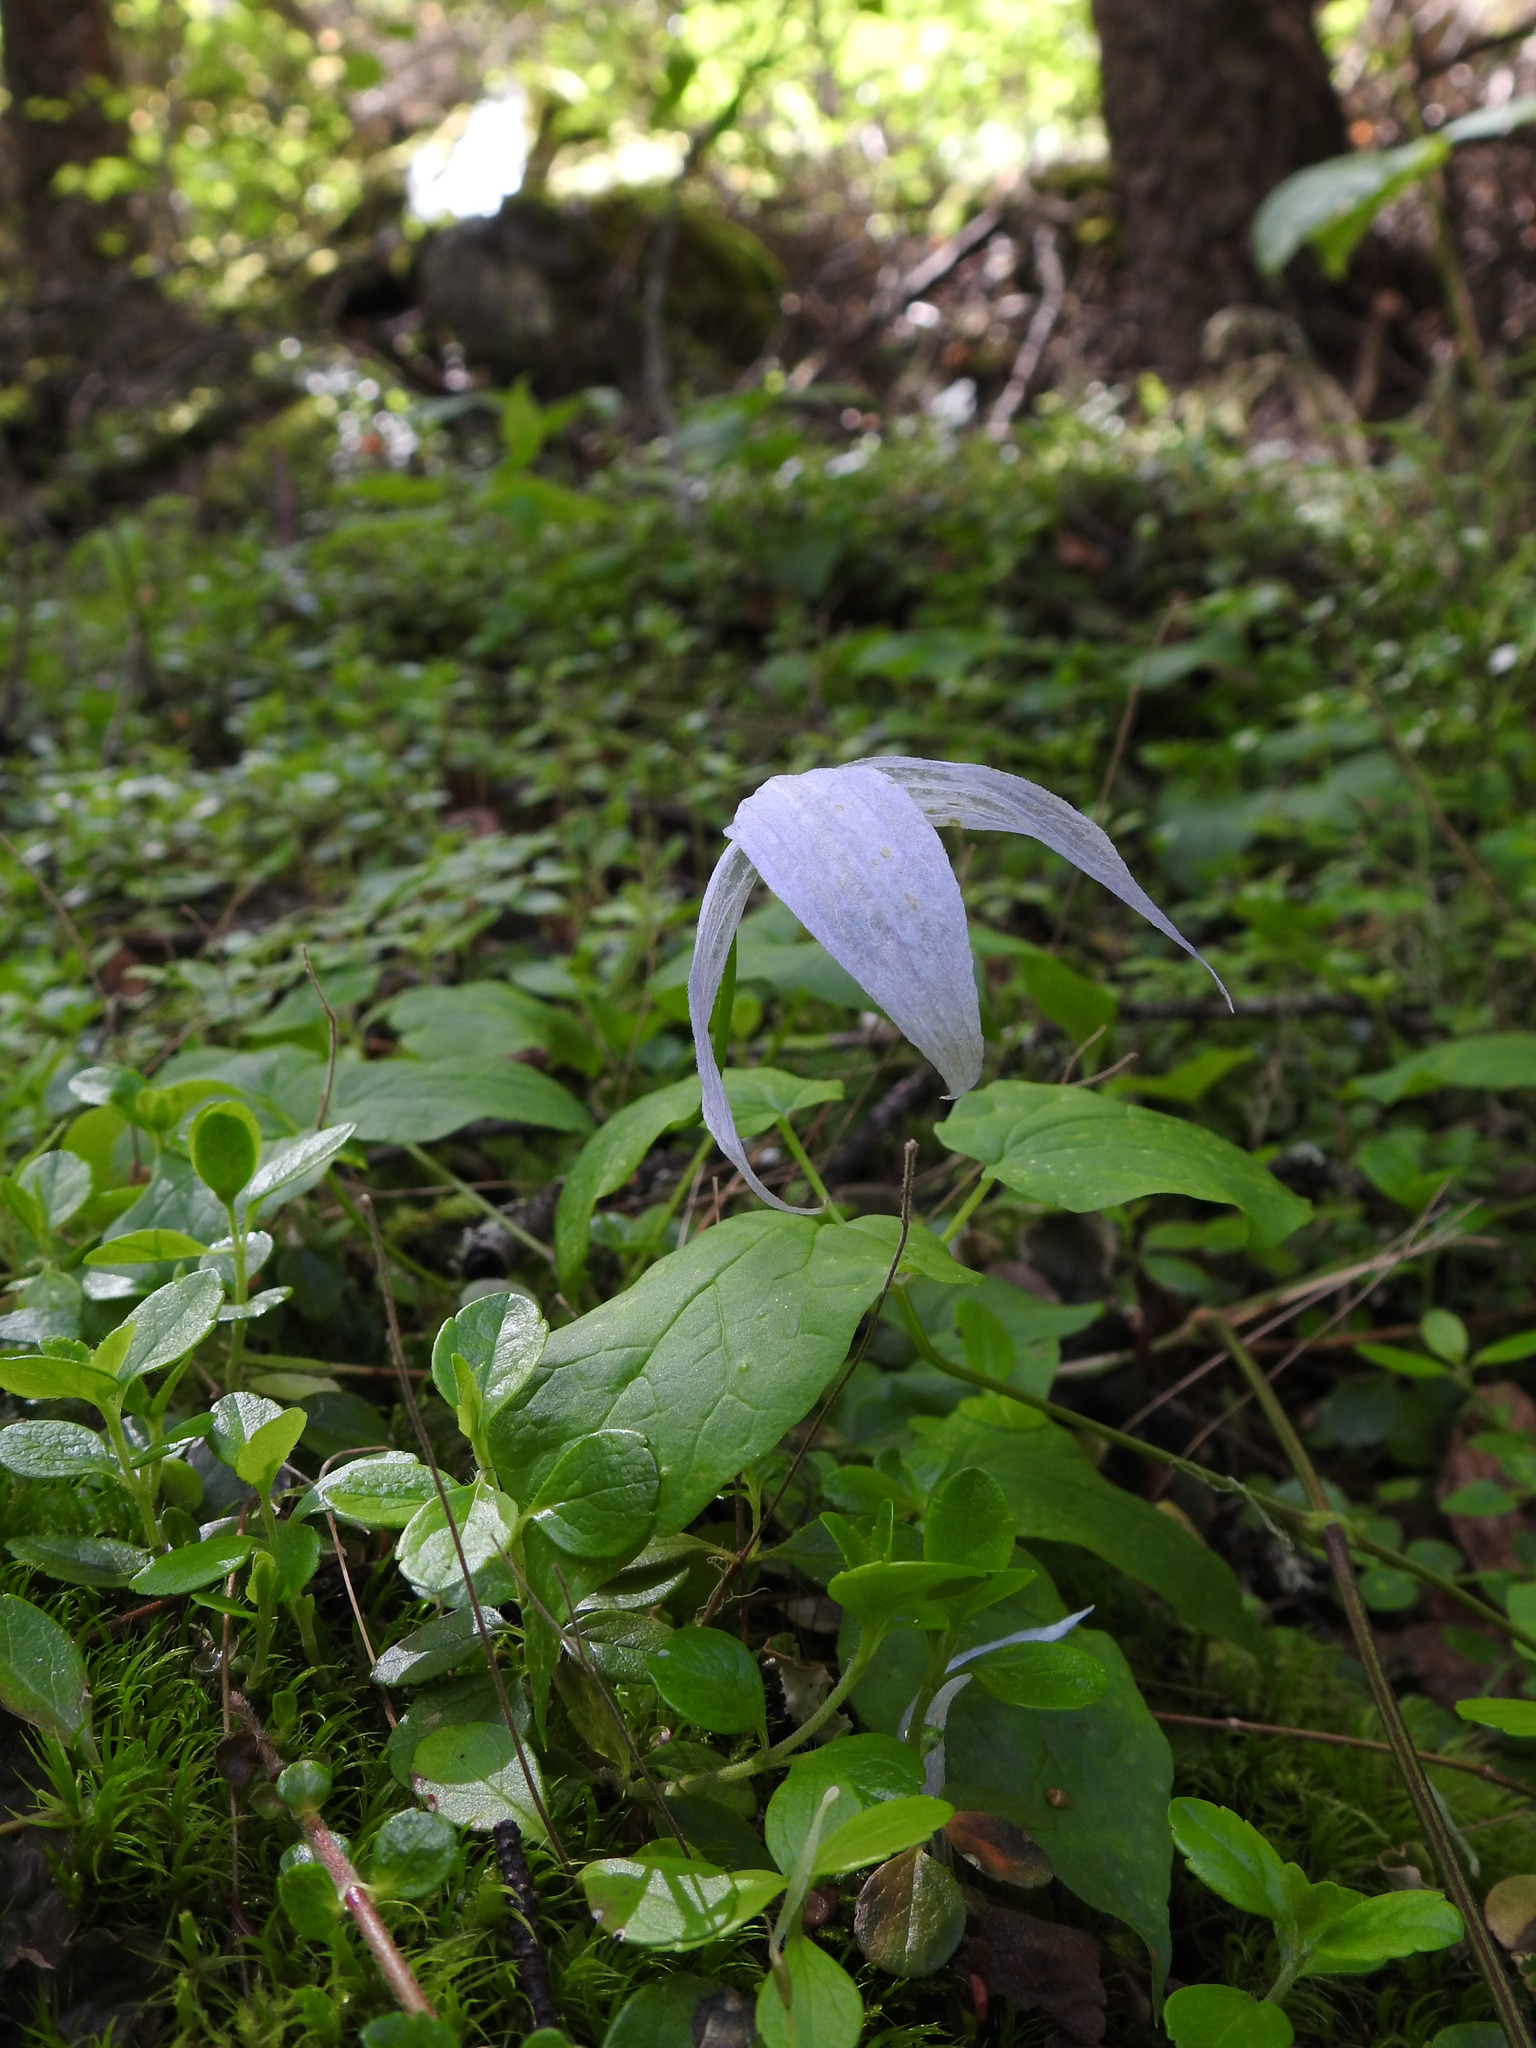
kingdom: Plantae
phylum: Tracheophyta
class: Magnoliopsida
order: Ranunculales
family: Ranunculaceae
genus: Clematis
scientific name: Clematis occidentalis
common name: Purple clematis
